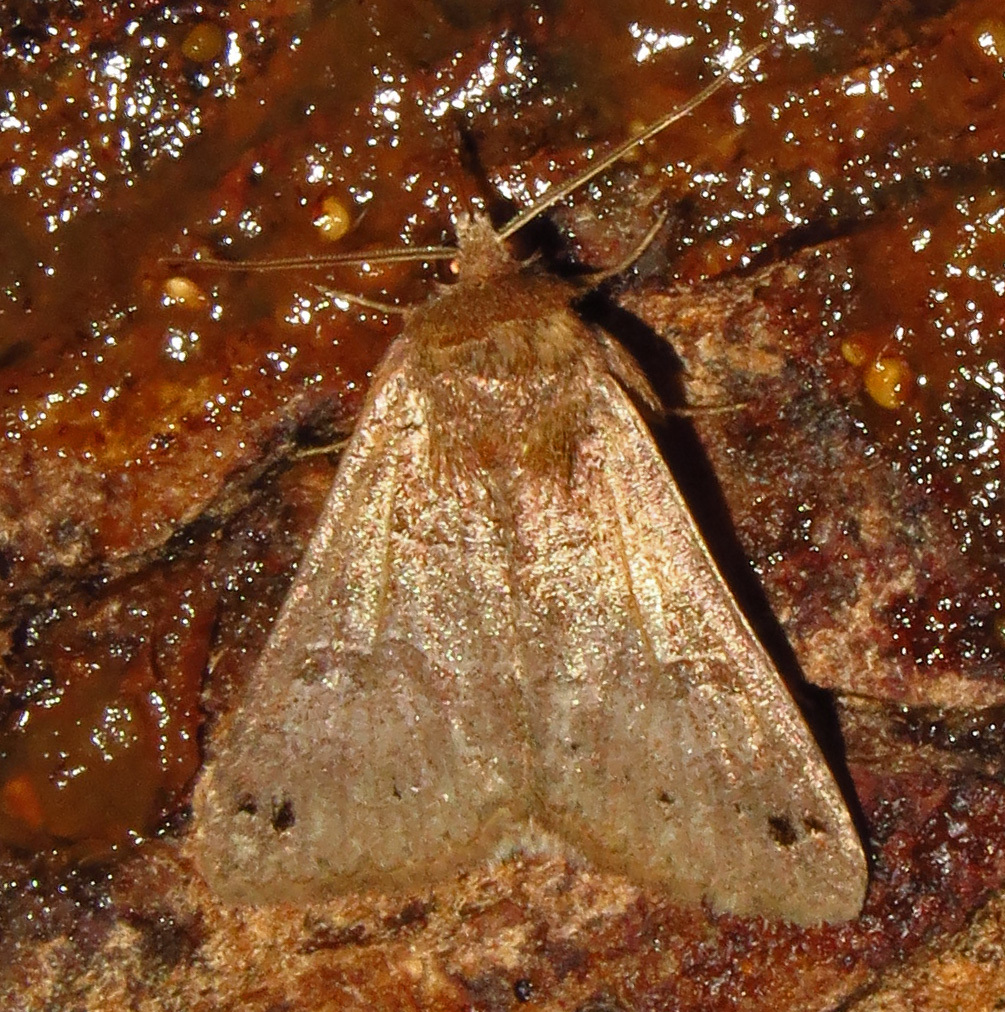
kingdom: Animalia
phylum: Arthropoda
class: Insecta
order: Lepidoptera
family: Erebidae
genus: Cissusa
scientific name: Cissusa spadix
